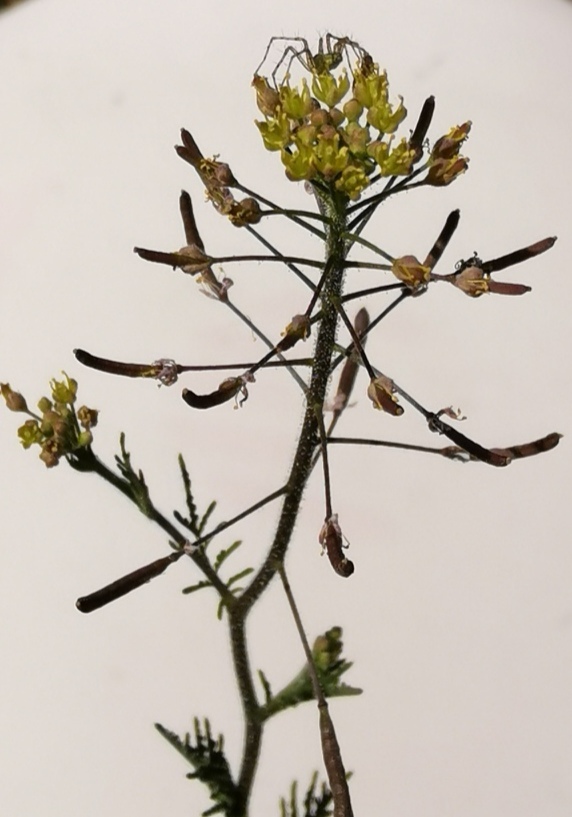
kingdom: Plantae
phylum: Tracheophyta
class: Magnoliopsida
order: Brassicales
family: Brassicaceae
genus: Descurainia
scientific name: Descurainia pinnata
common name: Western tansy mustard
